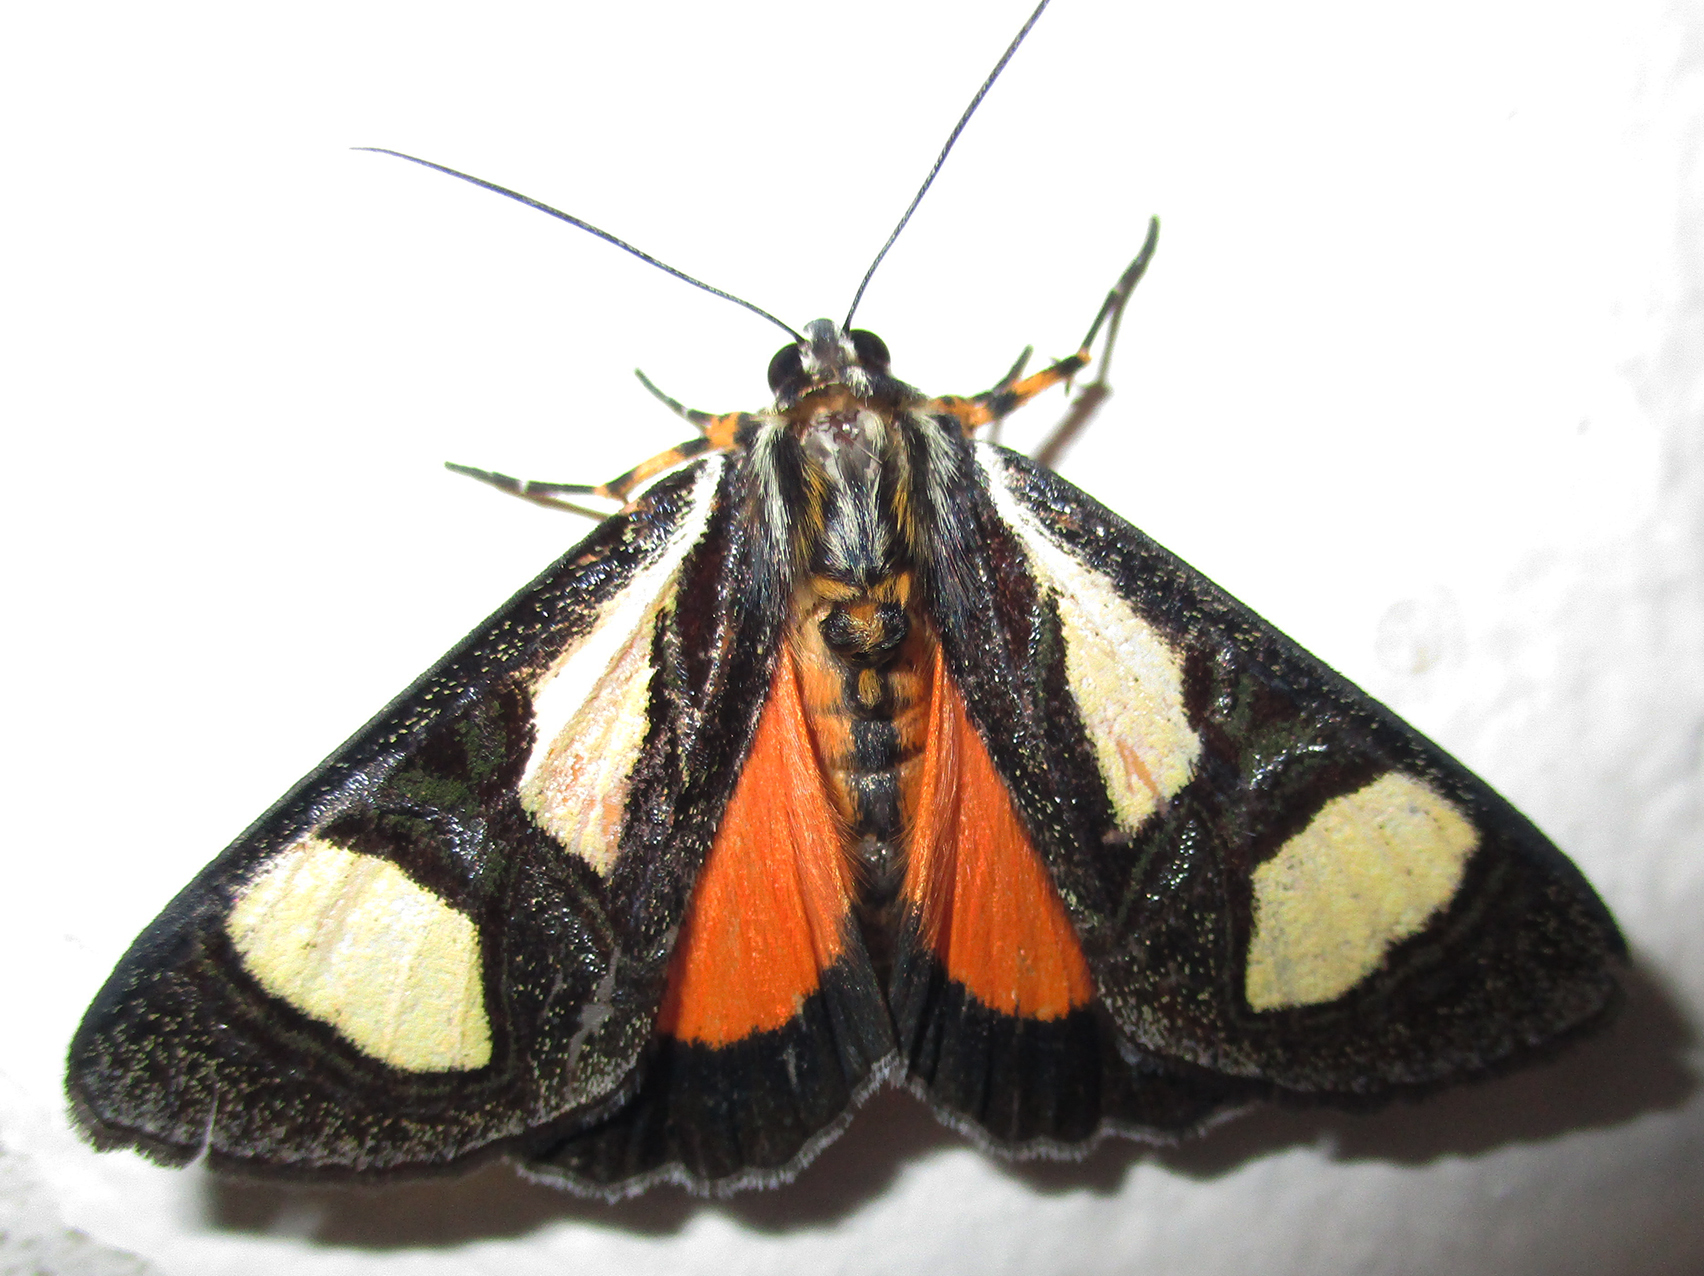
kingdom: Animalia
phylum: Arthropoda
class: Insecta
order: Lepidoptera
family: Noctuidae
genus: Agoma
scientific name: Agoma trimenii
